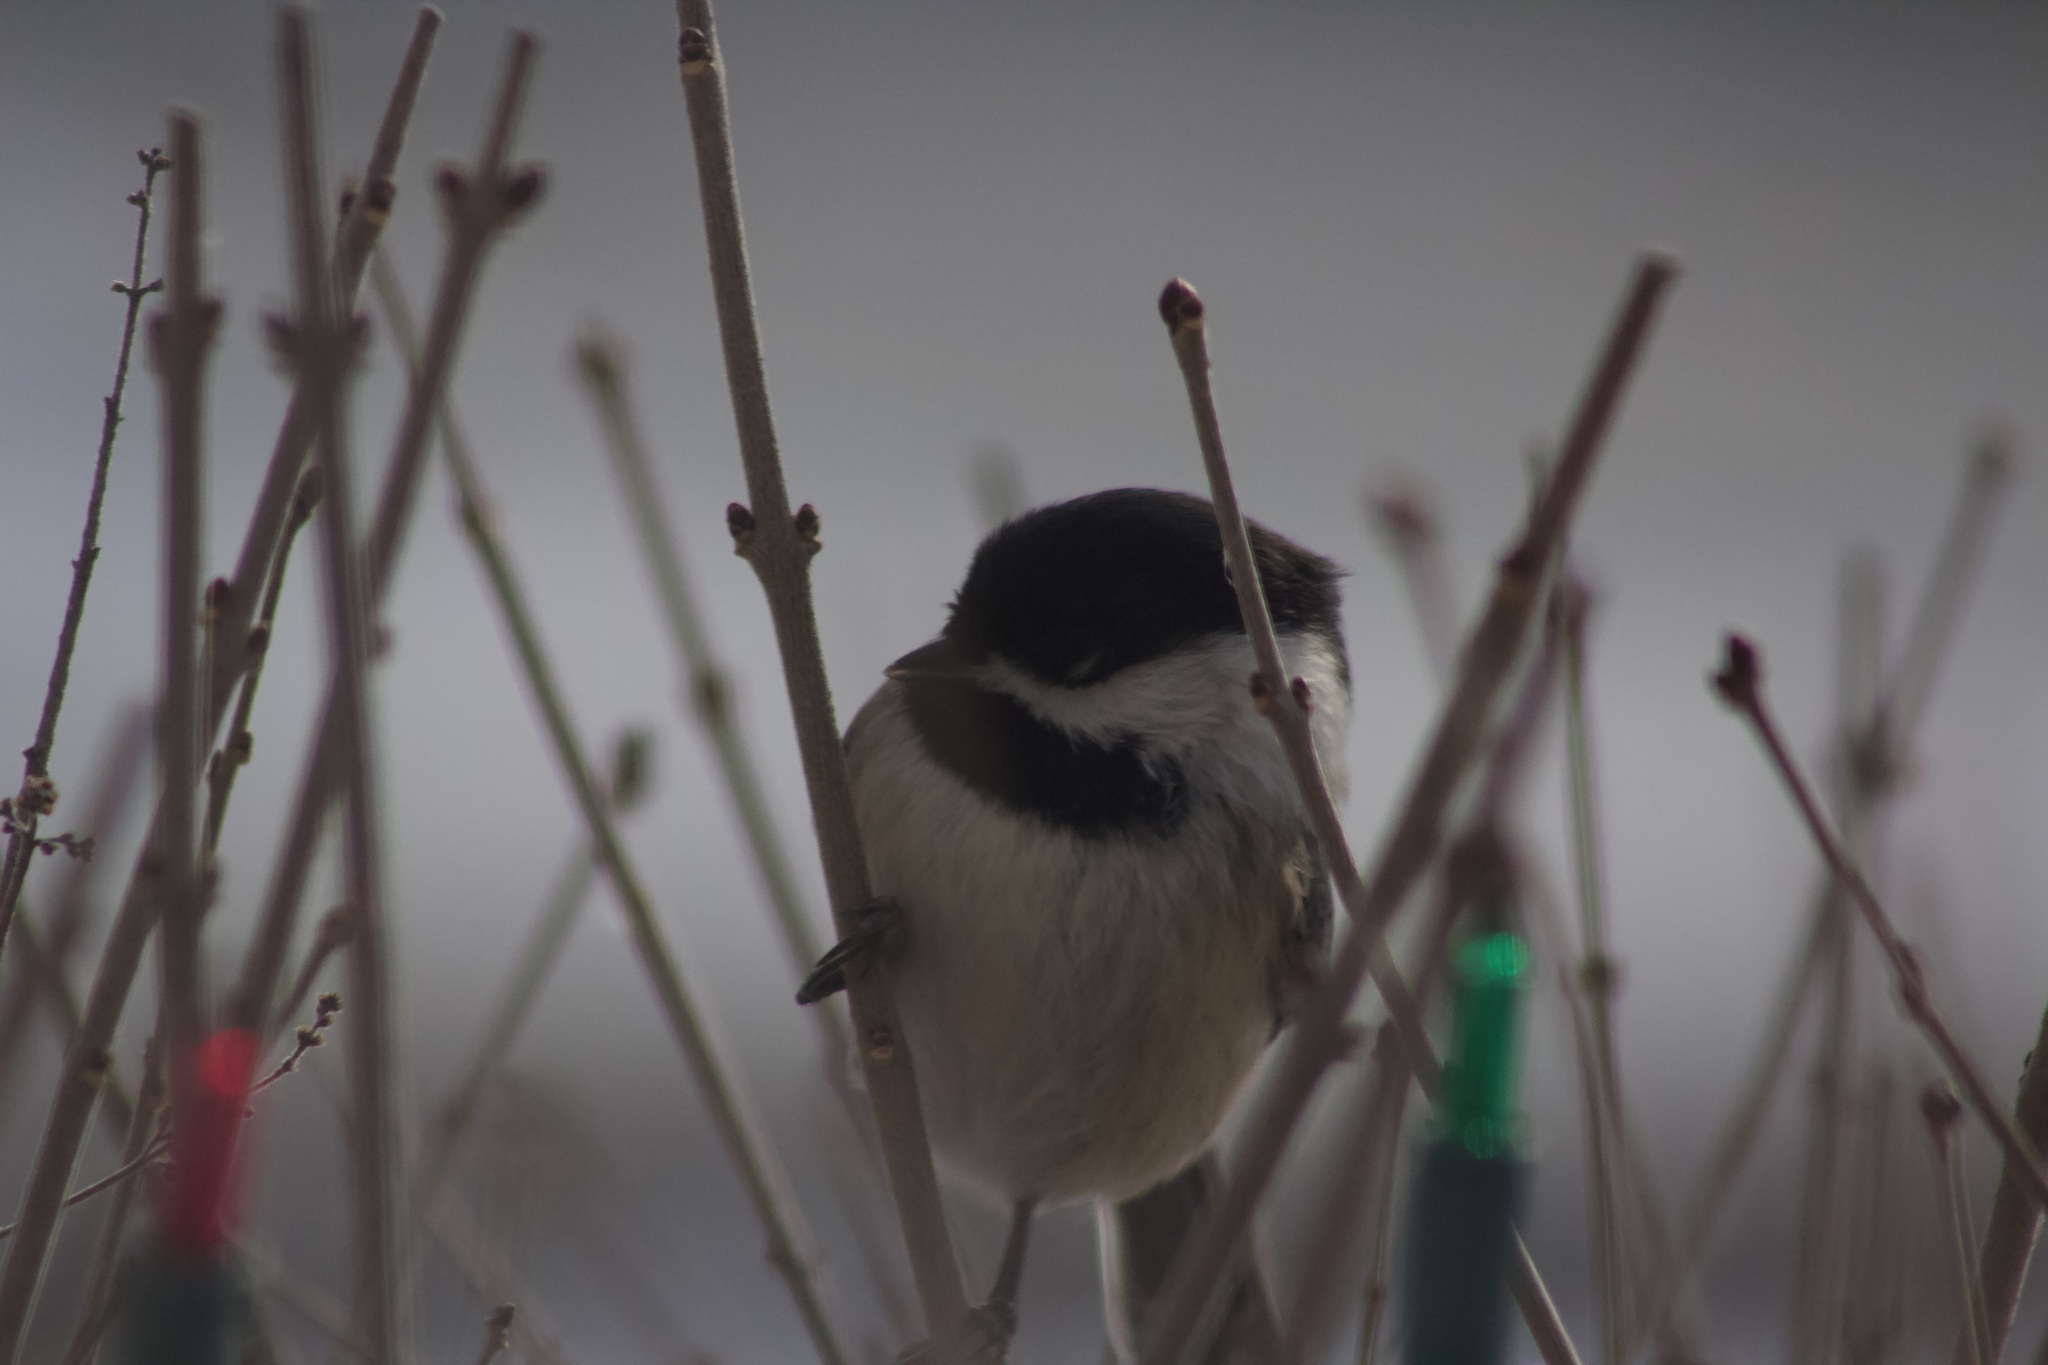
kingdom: Animalia
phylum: Chordata
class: Aves
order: Passeriformes
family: Paridae
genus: Poecile
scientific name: Poecile atricapillus
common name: Black-capped chickadee
